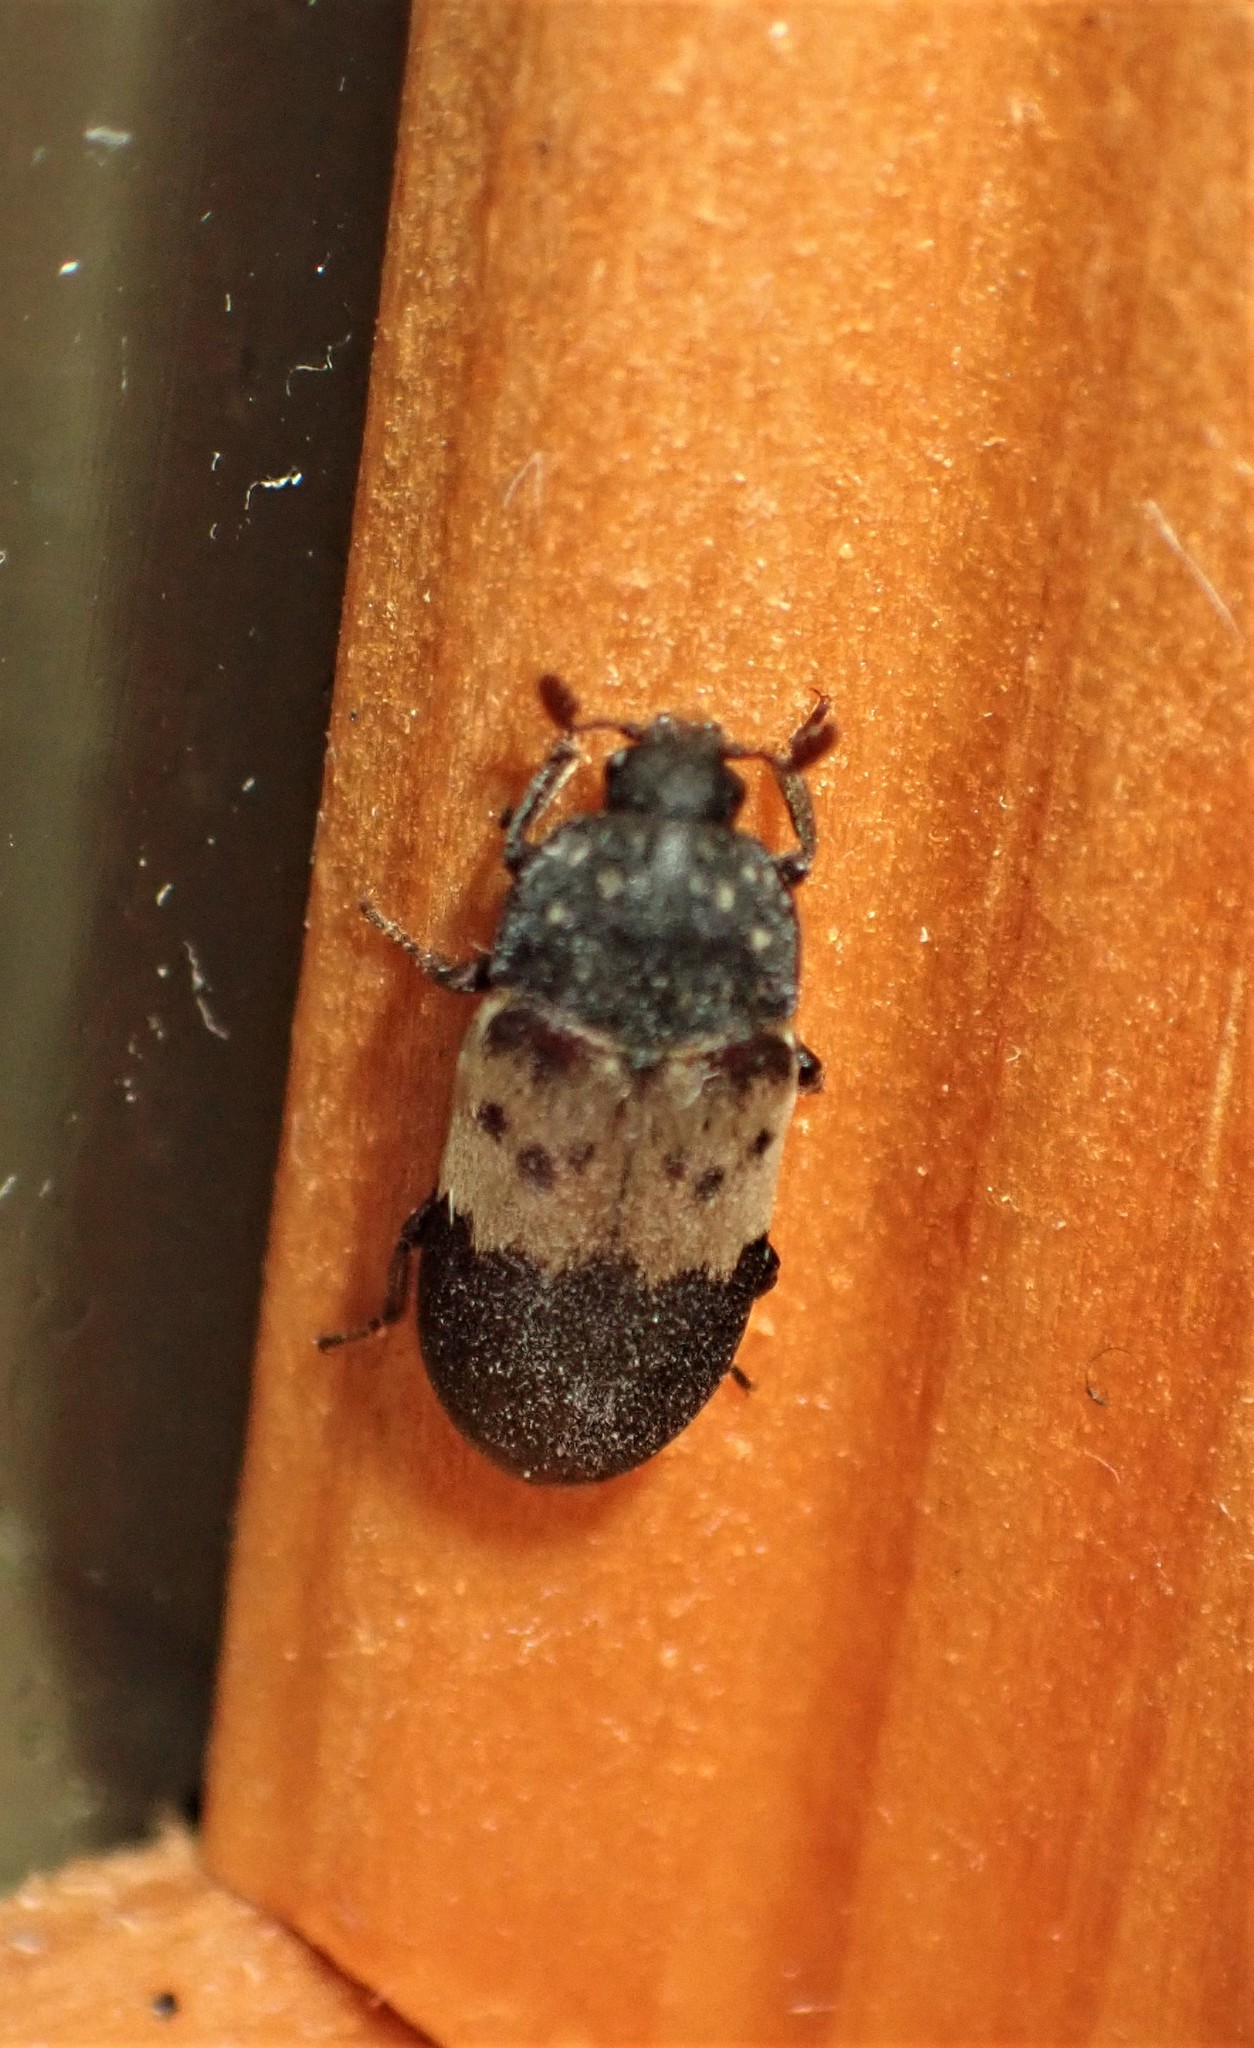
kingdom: Animalia
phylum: Arthropoda
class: Insecta
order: Coleoptera
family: Dermestidae
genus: Dermestes
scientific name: Dermestes lardarius
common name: Larder beetle
